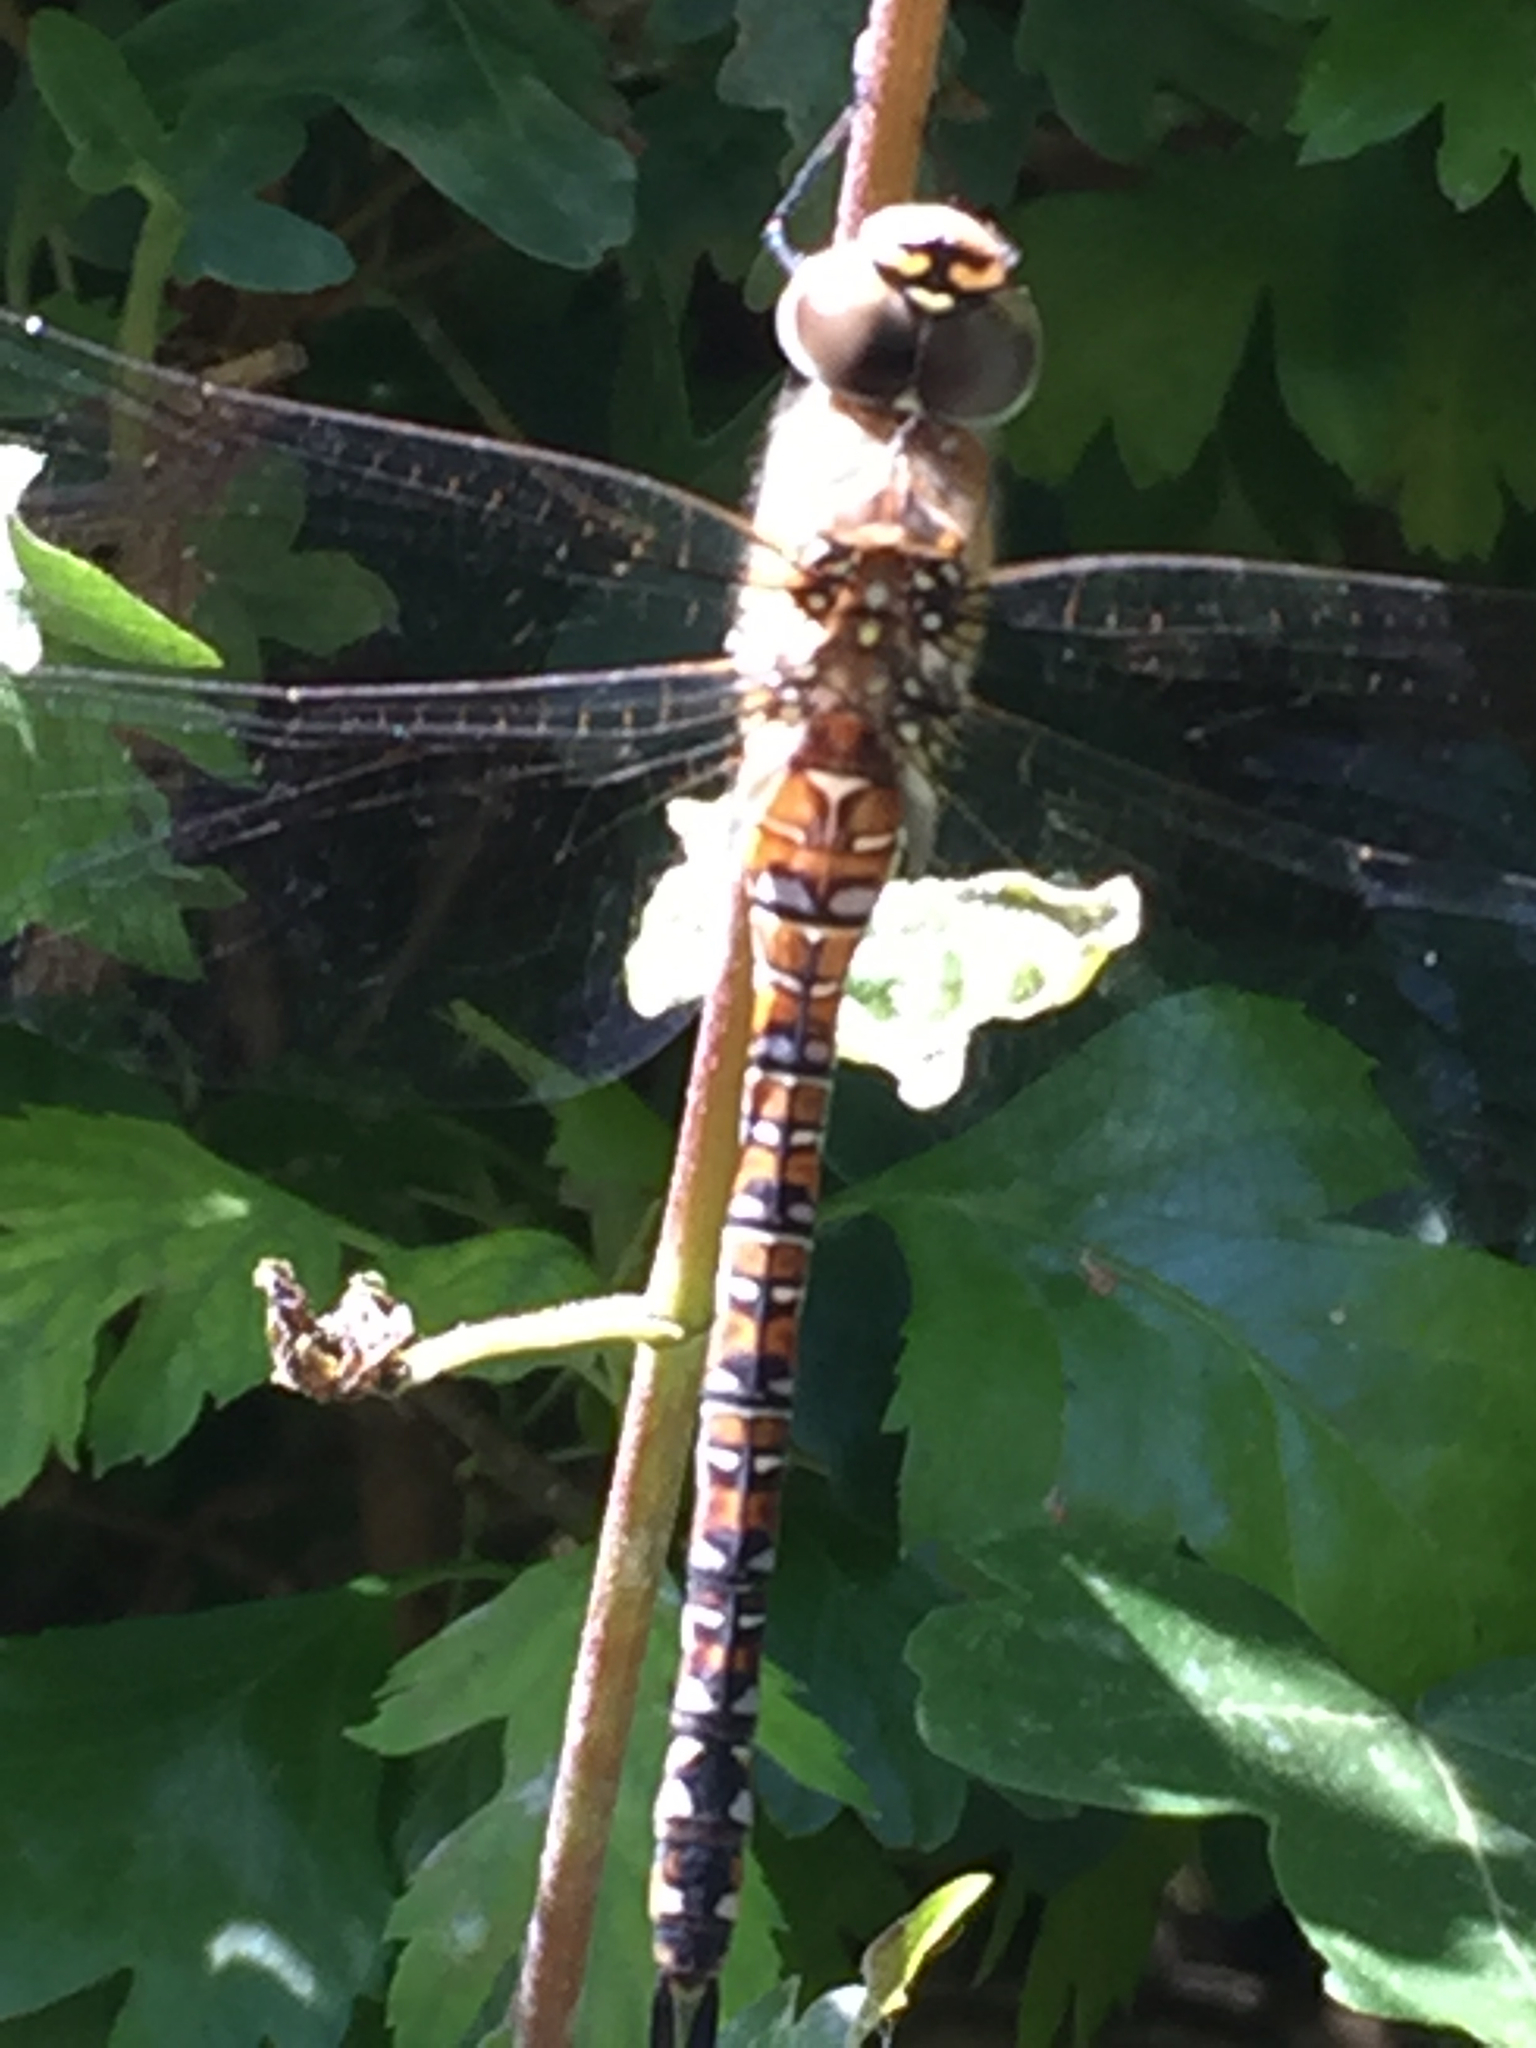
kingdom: Animalia
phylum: Arthropoda
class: Insecta
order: Odonata
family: Aeshnidae
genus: Aeshna
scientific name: Aeshna mixta
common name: Migrant hawker
